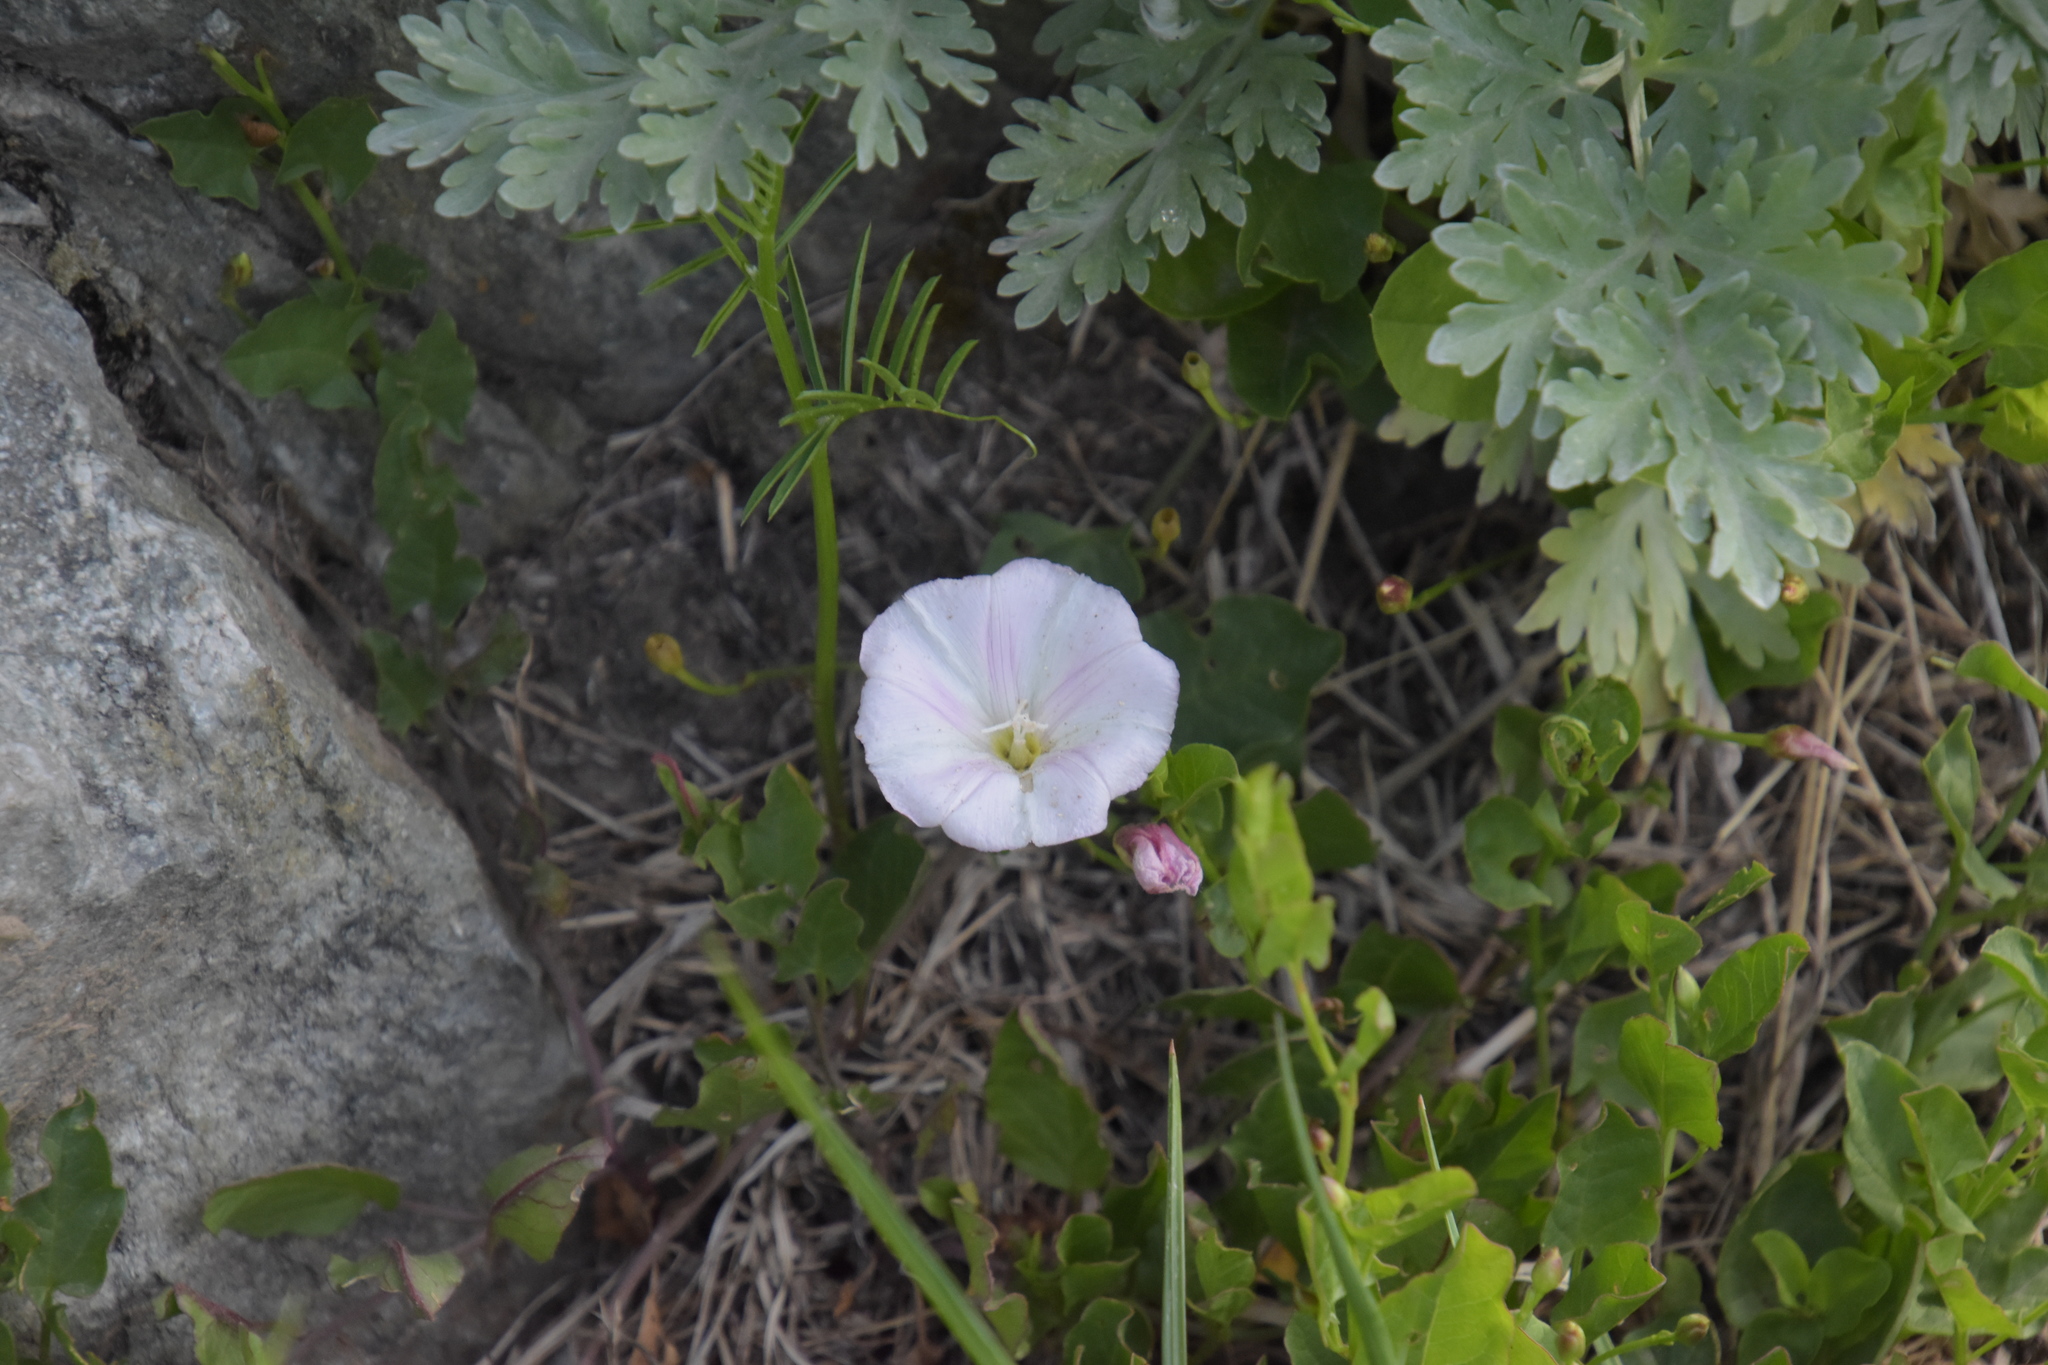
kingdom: Plantae
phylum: Tracheophyta
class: Magnoliopsida
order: Solanales
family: Convolvulaceae
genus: Convolvulus
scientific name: Convolvulus arvensis
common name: Field bindweed
